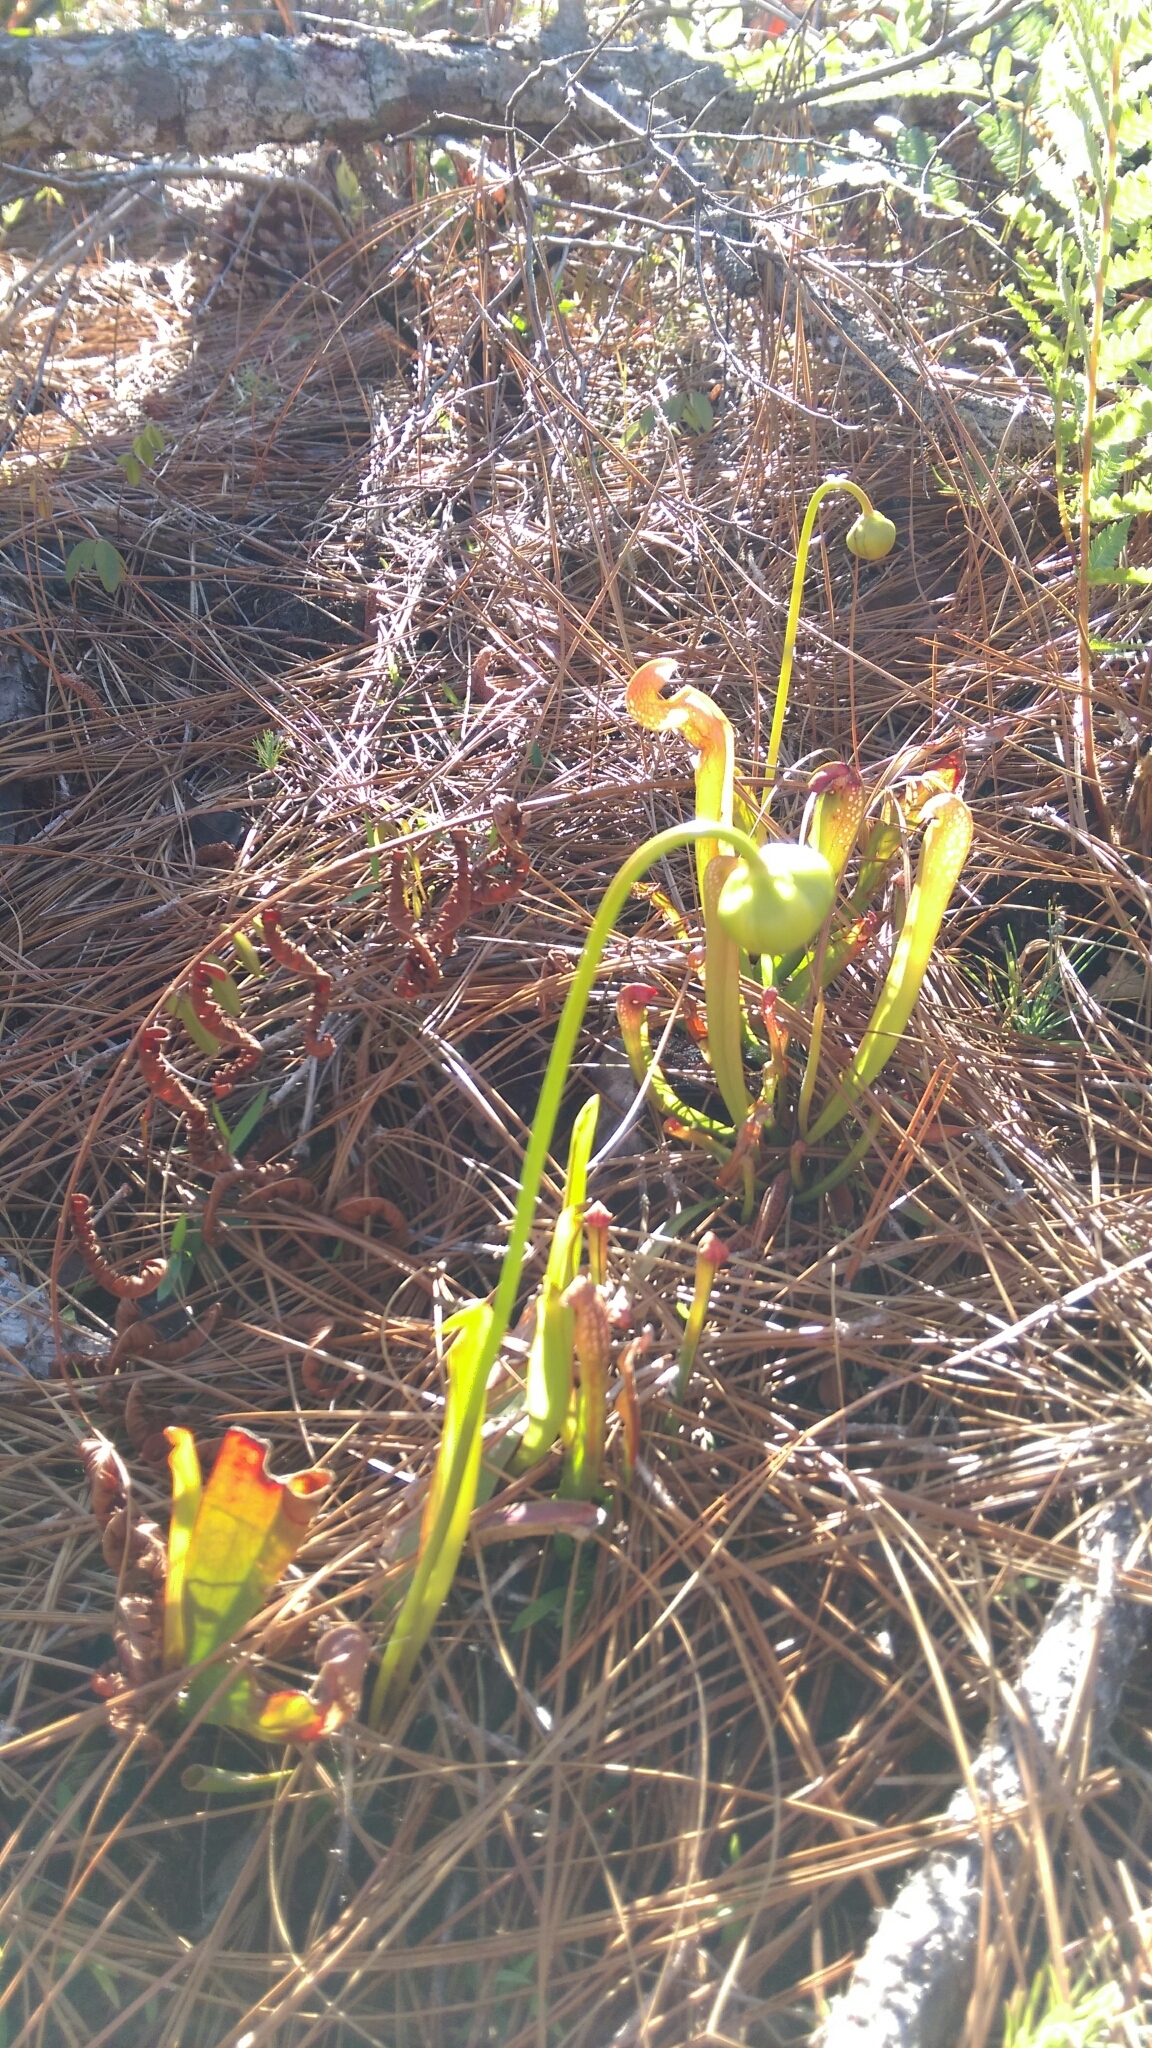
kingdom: Plantae
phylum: Tracheophyta
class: Magnoliopsida
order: Ericales
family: Sarraceniaceae
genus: Sarracenia
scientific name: Sarracenia minor
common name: Rainhat-trumpet
